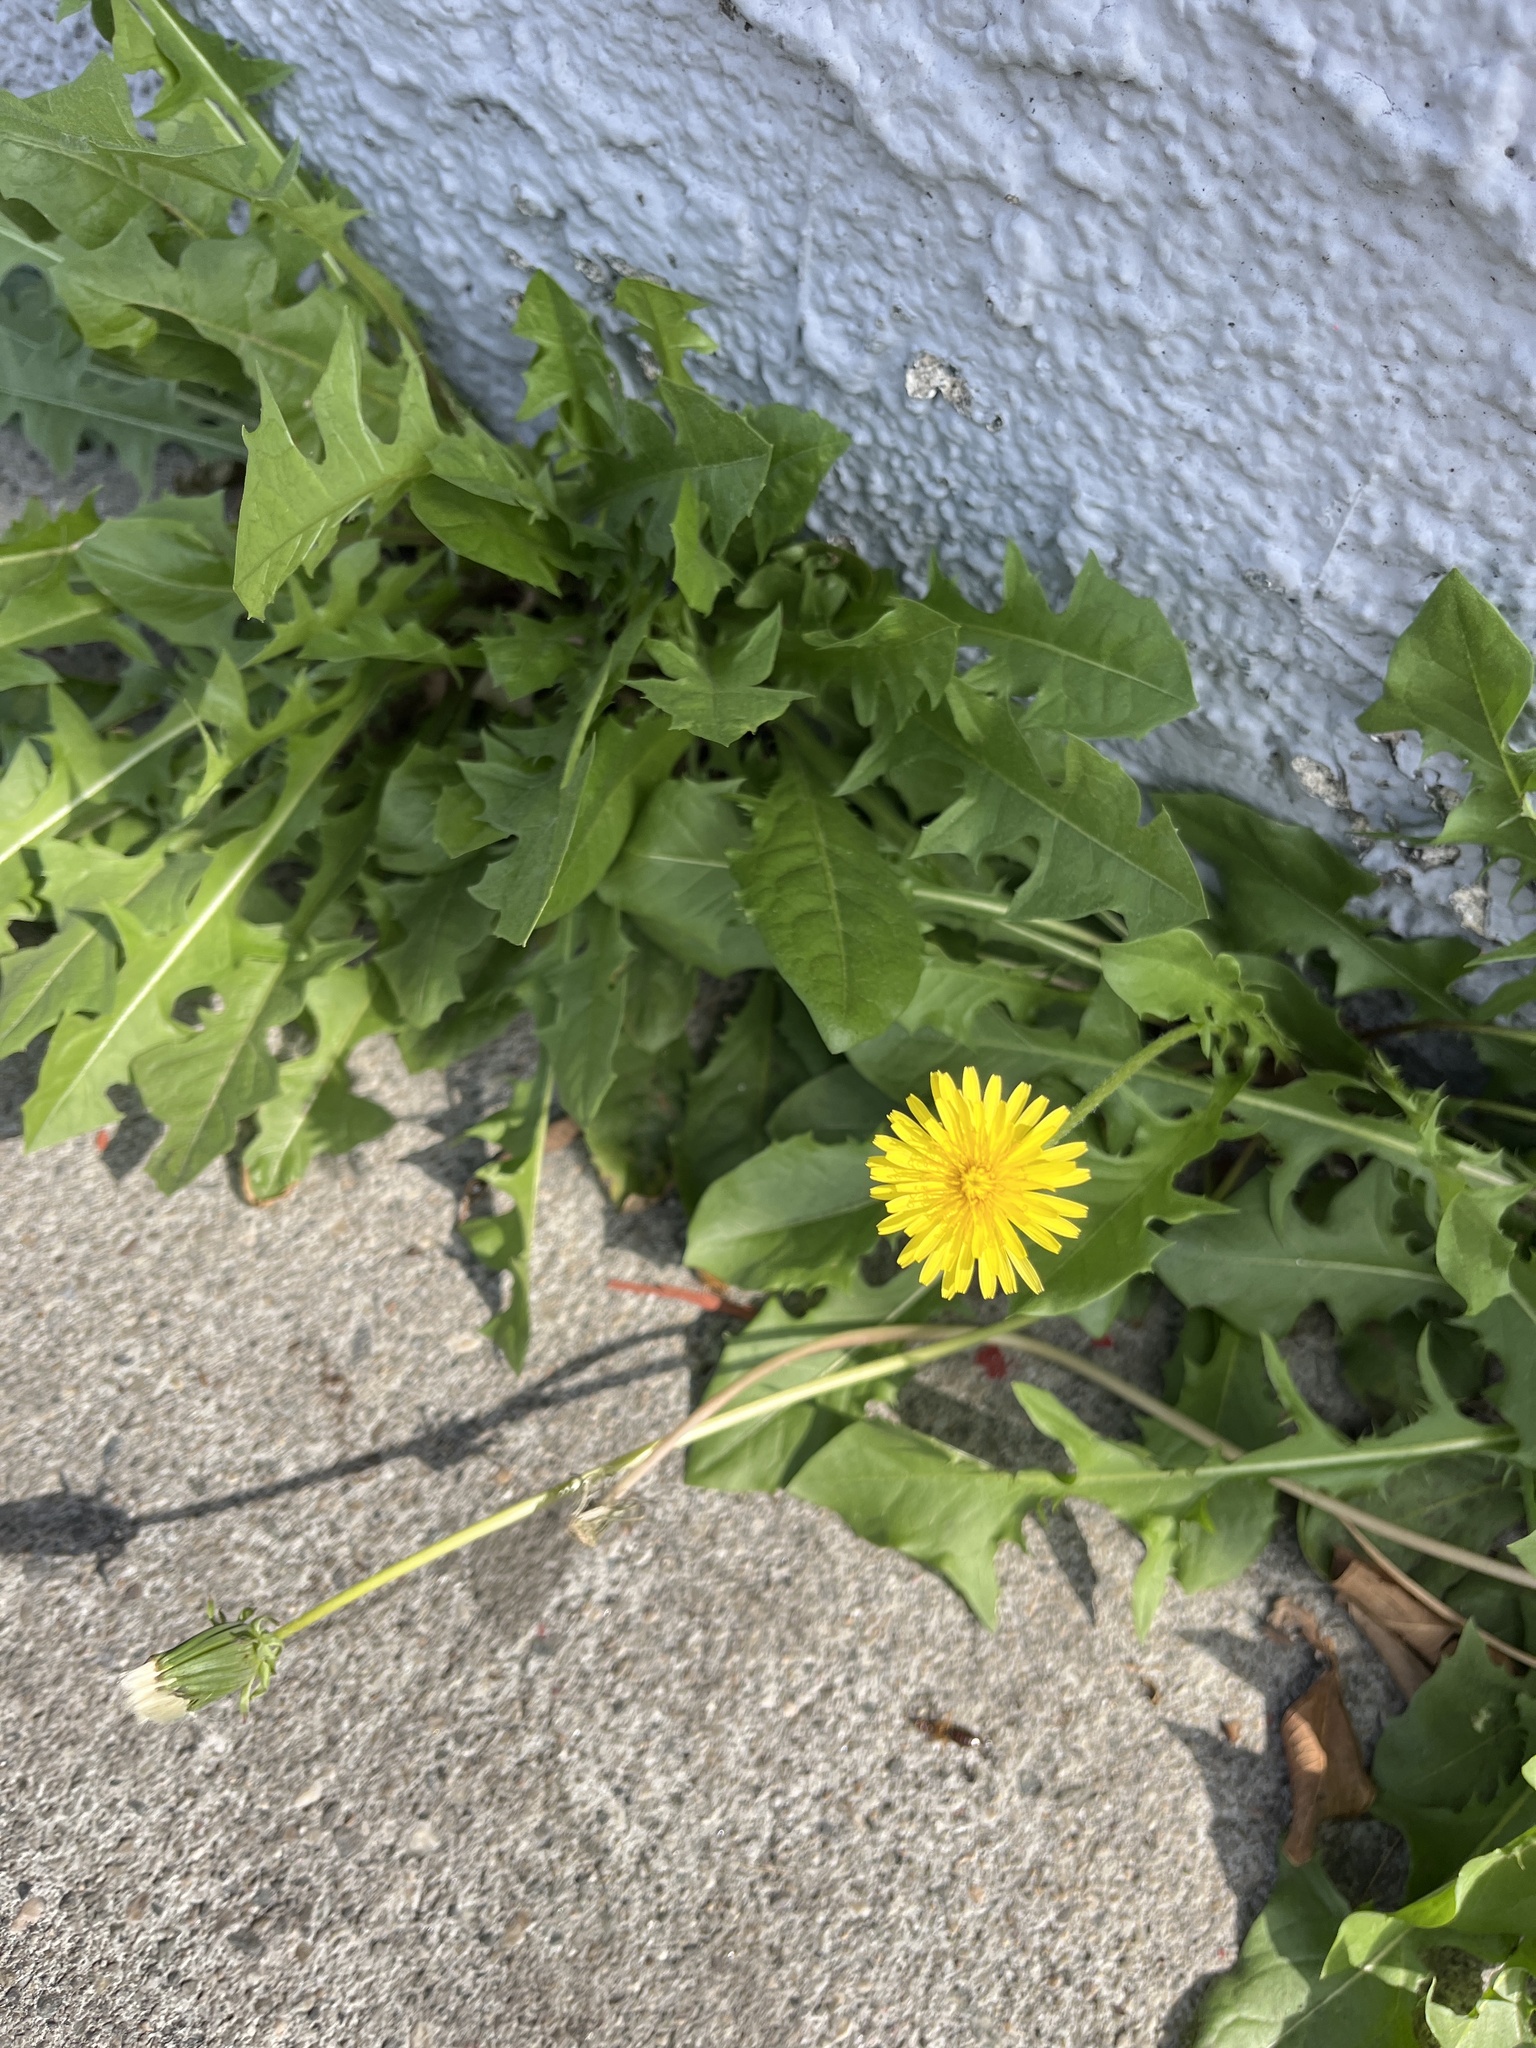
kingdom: Plantae
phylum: Tracheophyta
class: Magnoliopsida
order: Asterales
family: Asteraceae
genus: Taraxacum
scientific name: Taraxacum
